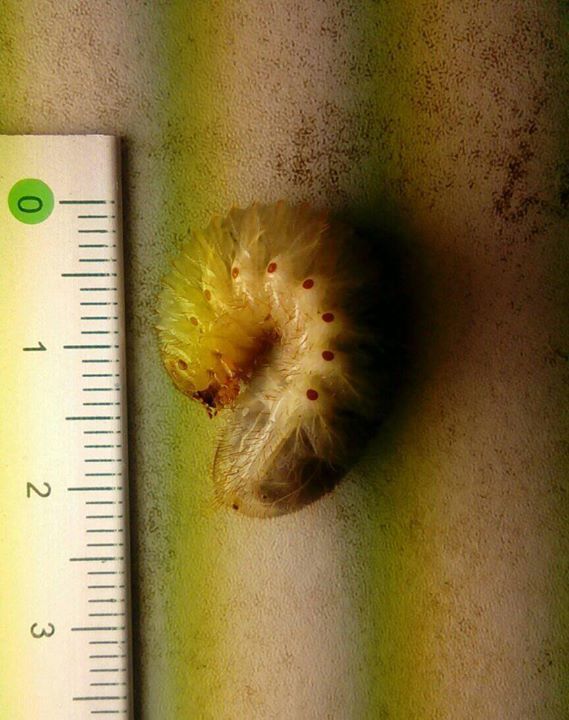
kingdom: Animalia
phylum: Arthropoda
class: Insecta
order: Coleoptera
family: Scarabaeidae
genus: Protaetia
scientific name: Protaetia orientalis
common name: Oriental flower beetle
